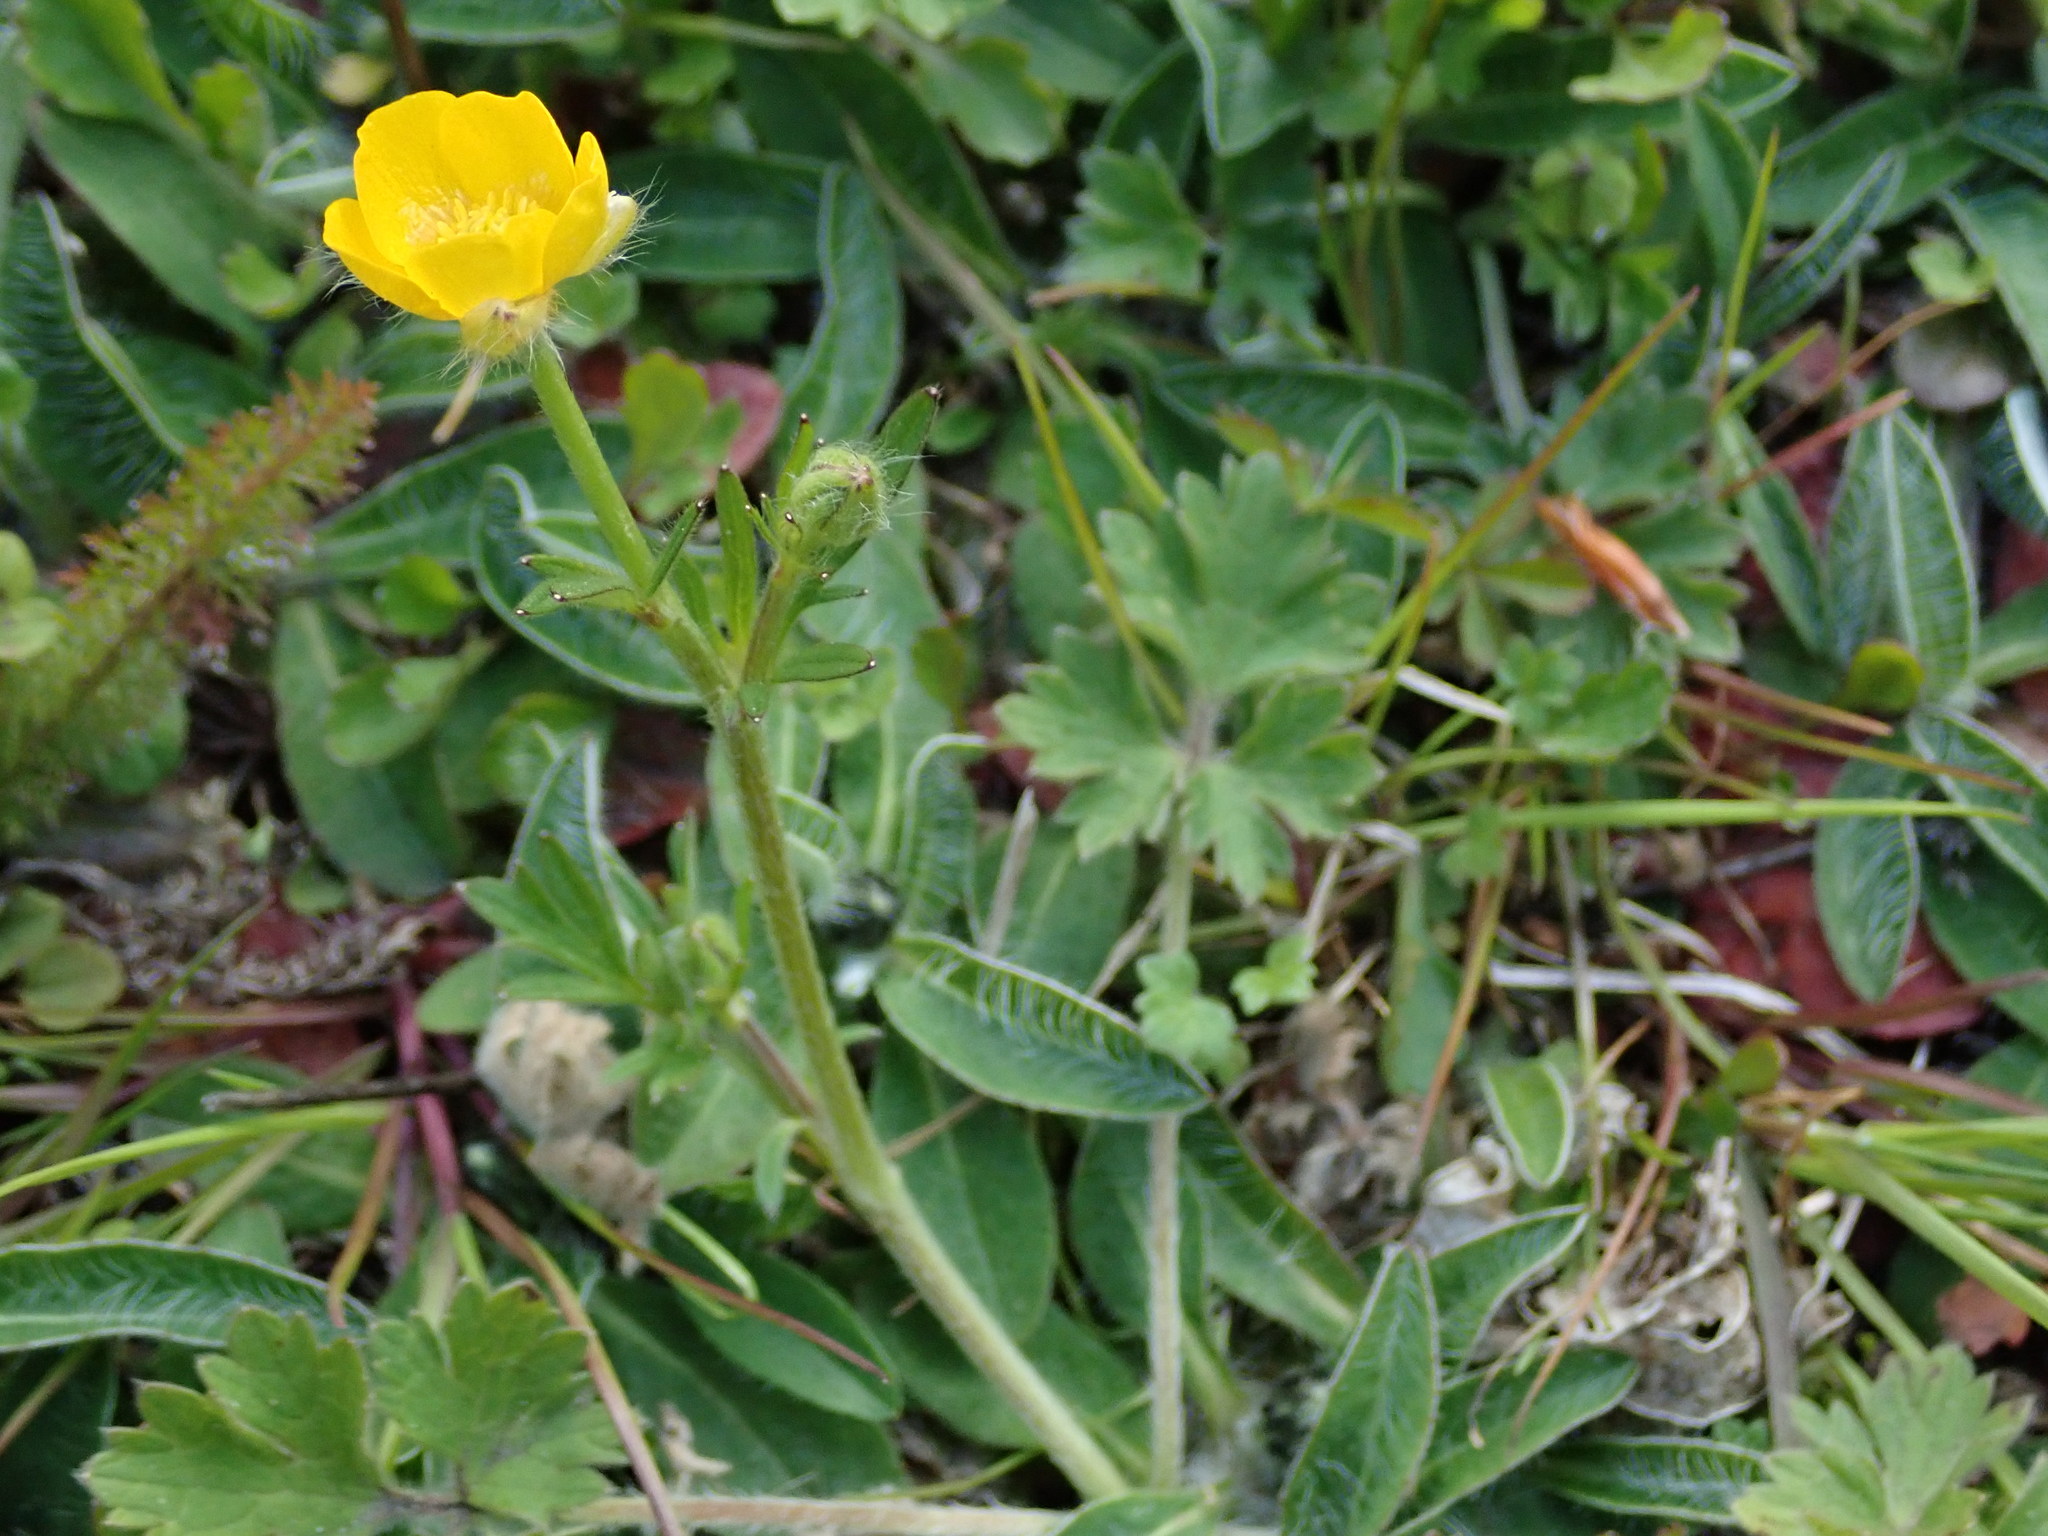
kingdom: Plantae
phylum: Tracheophyta
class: Magnoliopsida
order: Ranunculales
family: Ranunculaceae
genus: Ranunculus
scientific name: Ranunculus bulbosus
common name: Bulbous buttercup
